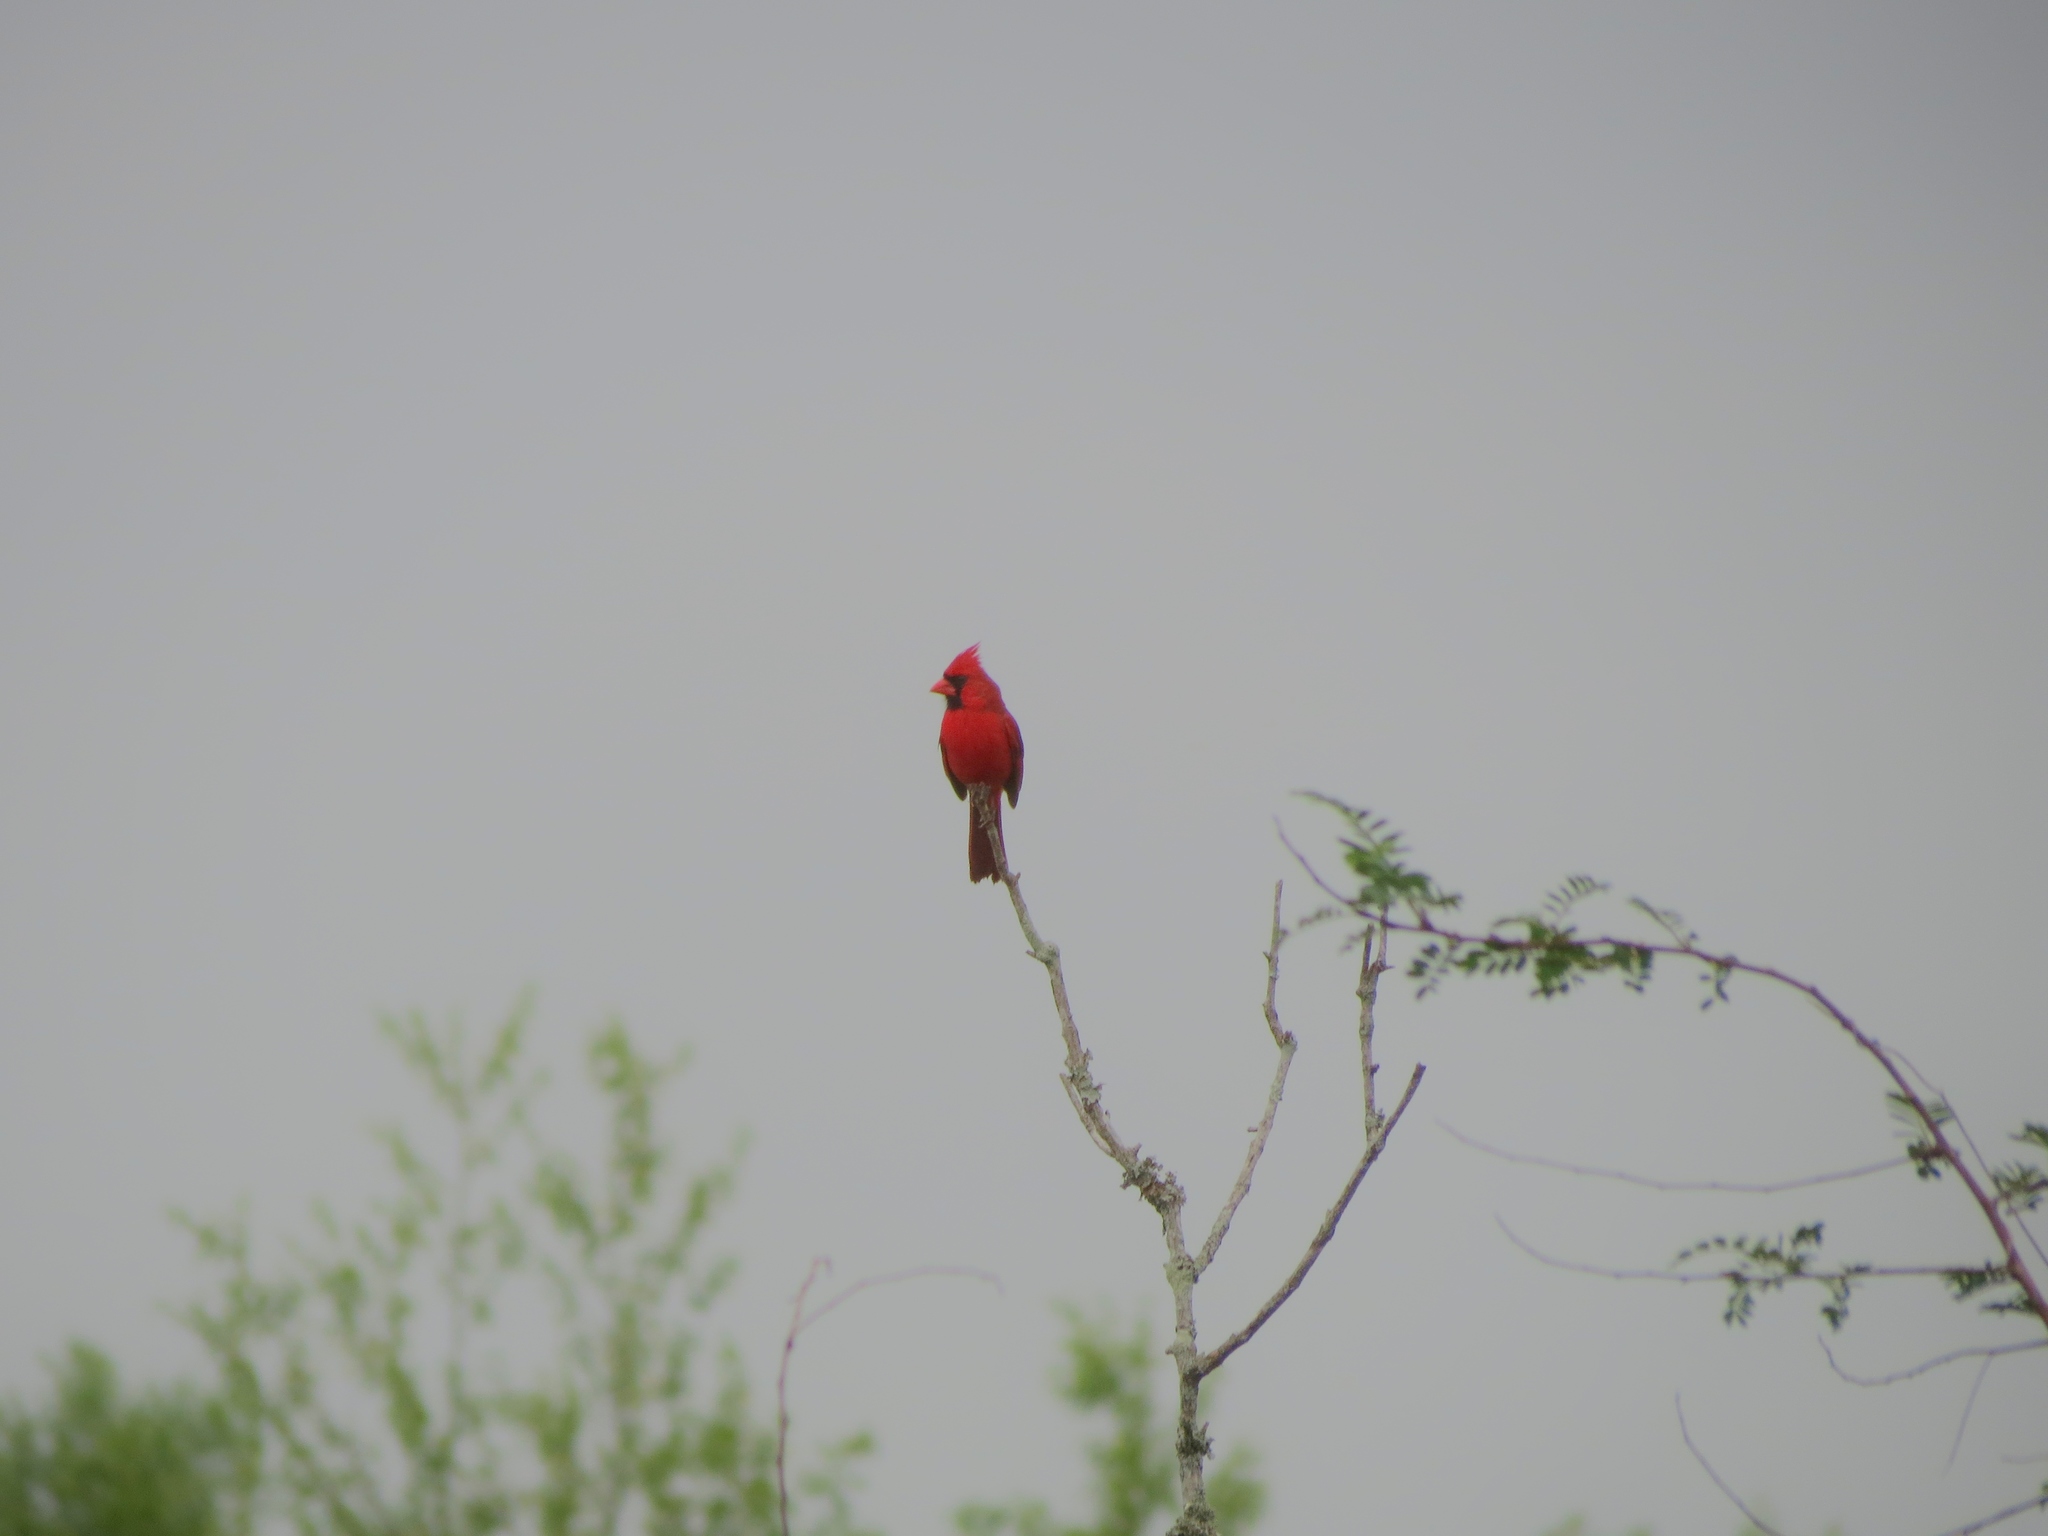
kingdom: Animalia
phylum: Chordata
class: Aves
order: Passeriformes
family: Cardinalidae
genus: Cardinalis
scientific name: Cardinalis cardinalis
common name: Northern cardinal
